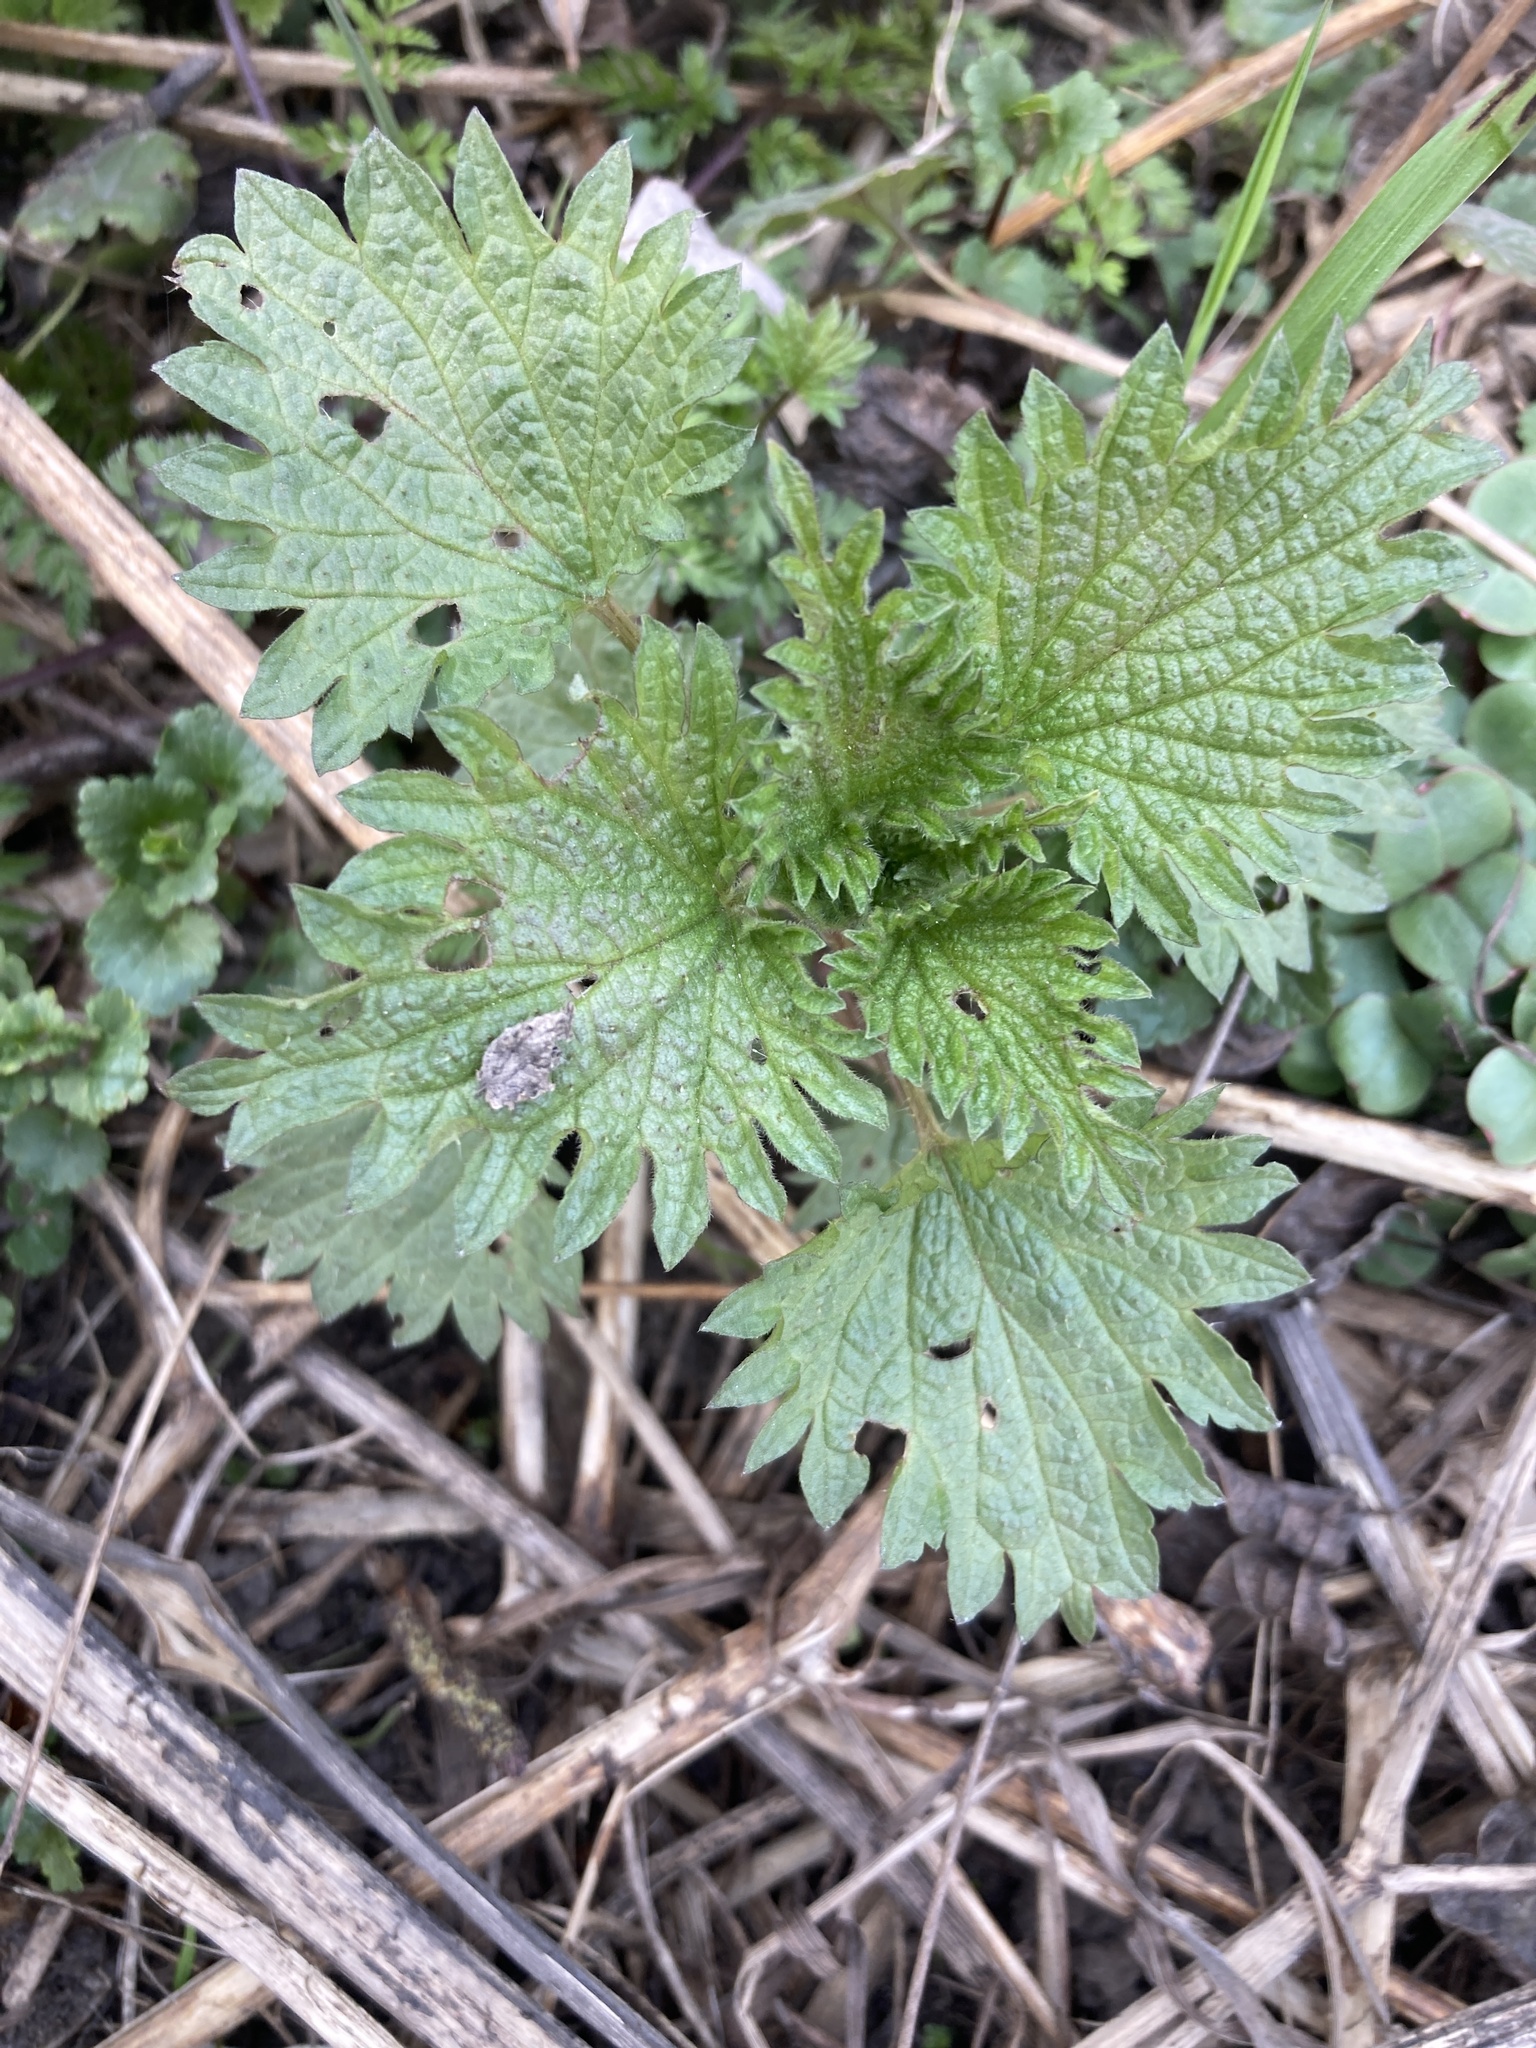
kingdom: Plantae
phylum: Tracheophyta
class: Magnoliopsida
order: Rosales
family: Urticaceae
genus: Urtica
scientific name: Urtica dioica
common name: Common nettle
